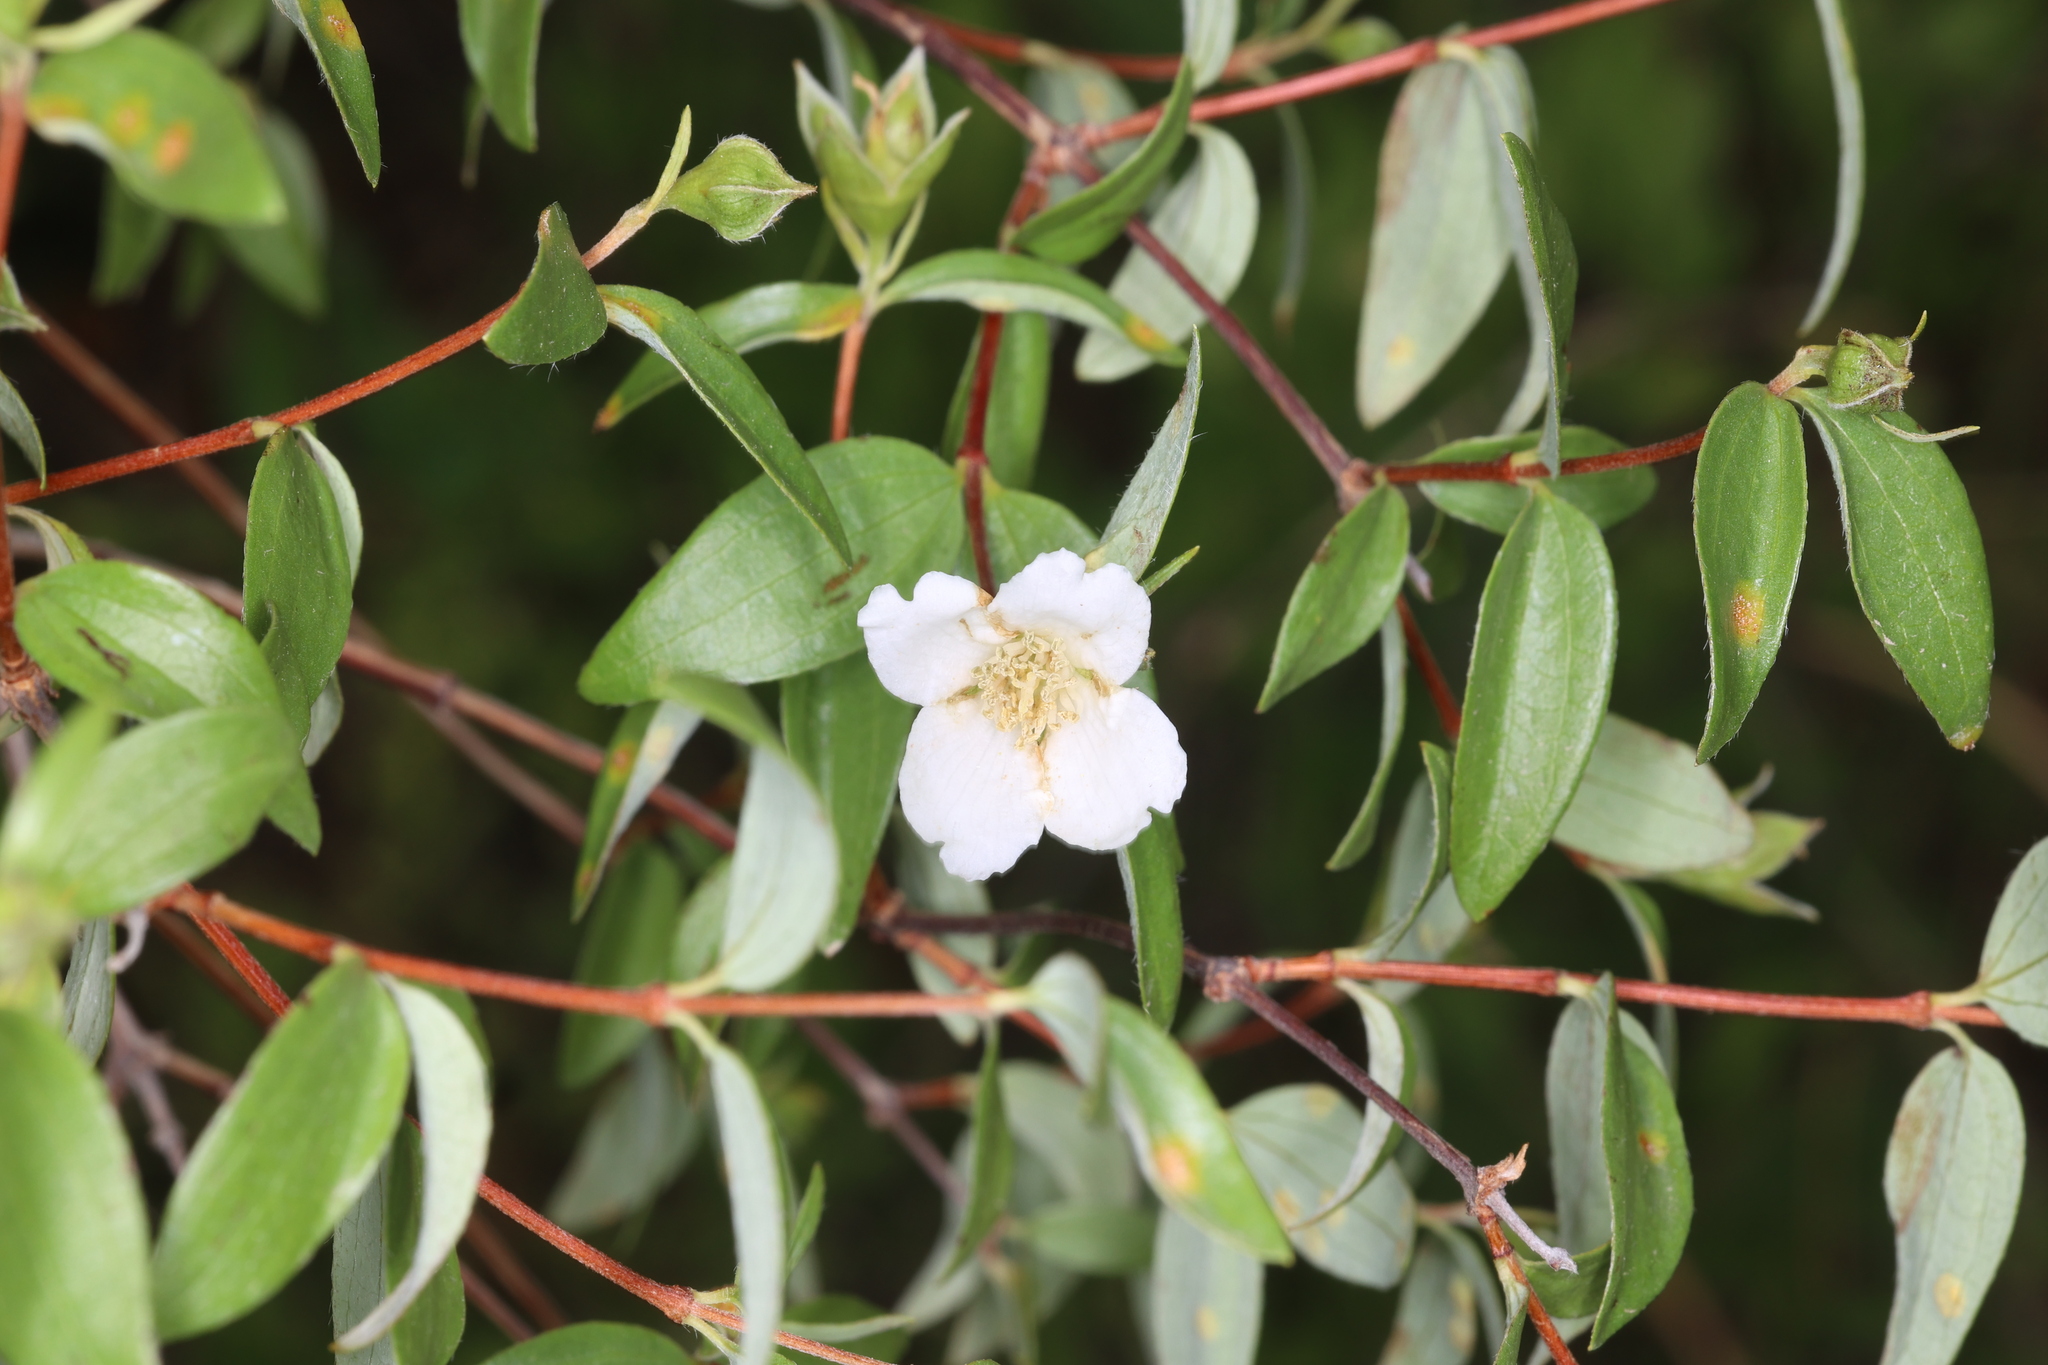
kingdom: Plantae
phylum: Tracheophyta
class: Magnoliopsida
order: Cornales
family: Hydrangeaceae
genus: Philadelphus
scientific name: Philadelphus microphyllus
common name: Desert mock orange
